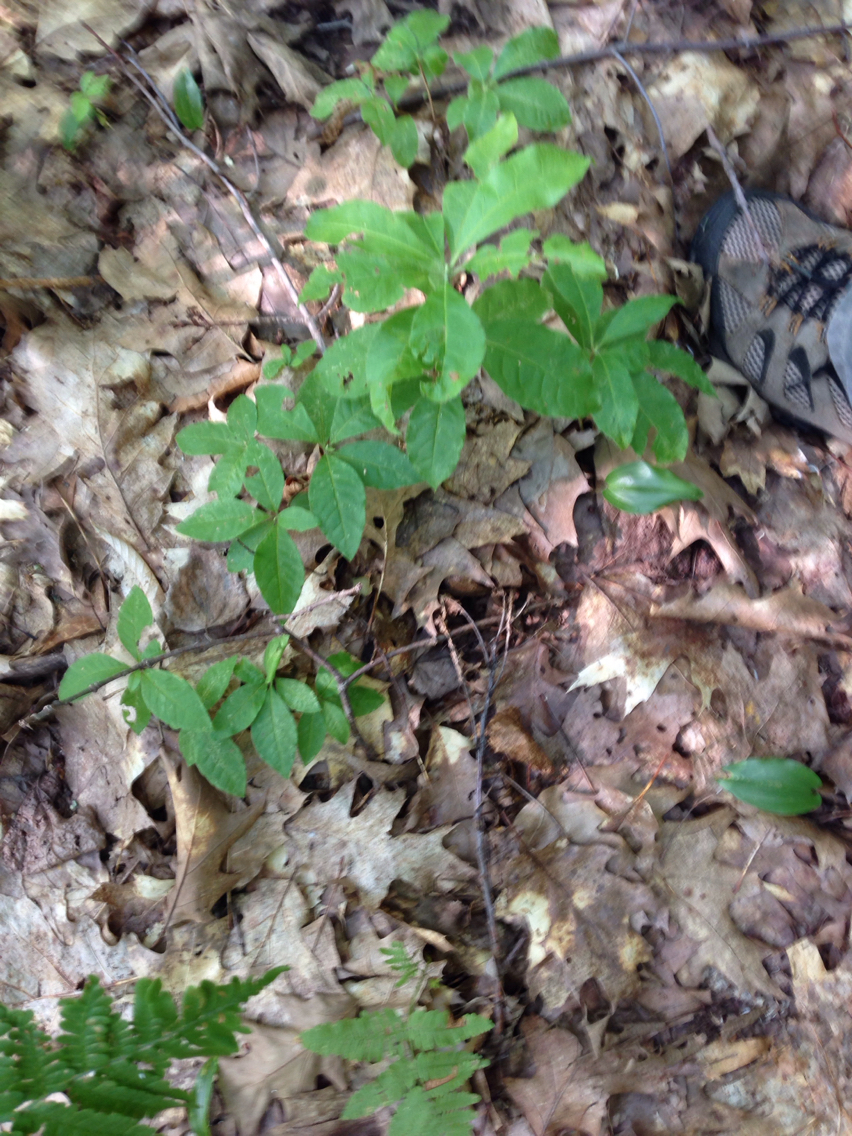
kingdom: Plantae
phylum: Tracheophyta
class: Magnoliopsida
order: Ericales
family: Ericaceae
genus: Rhododendron
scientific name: Rhododendron roseum
